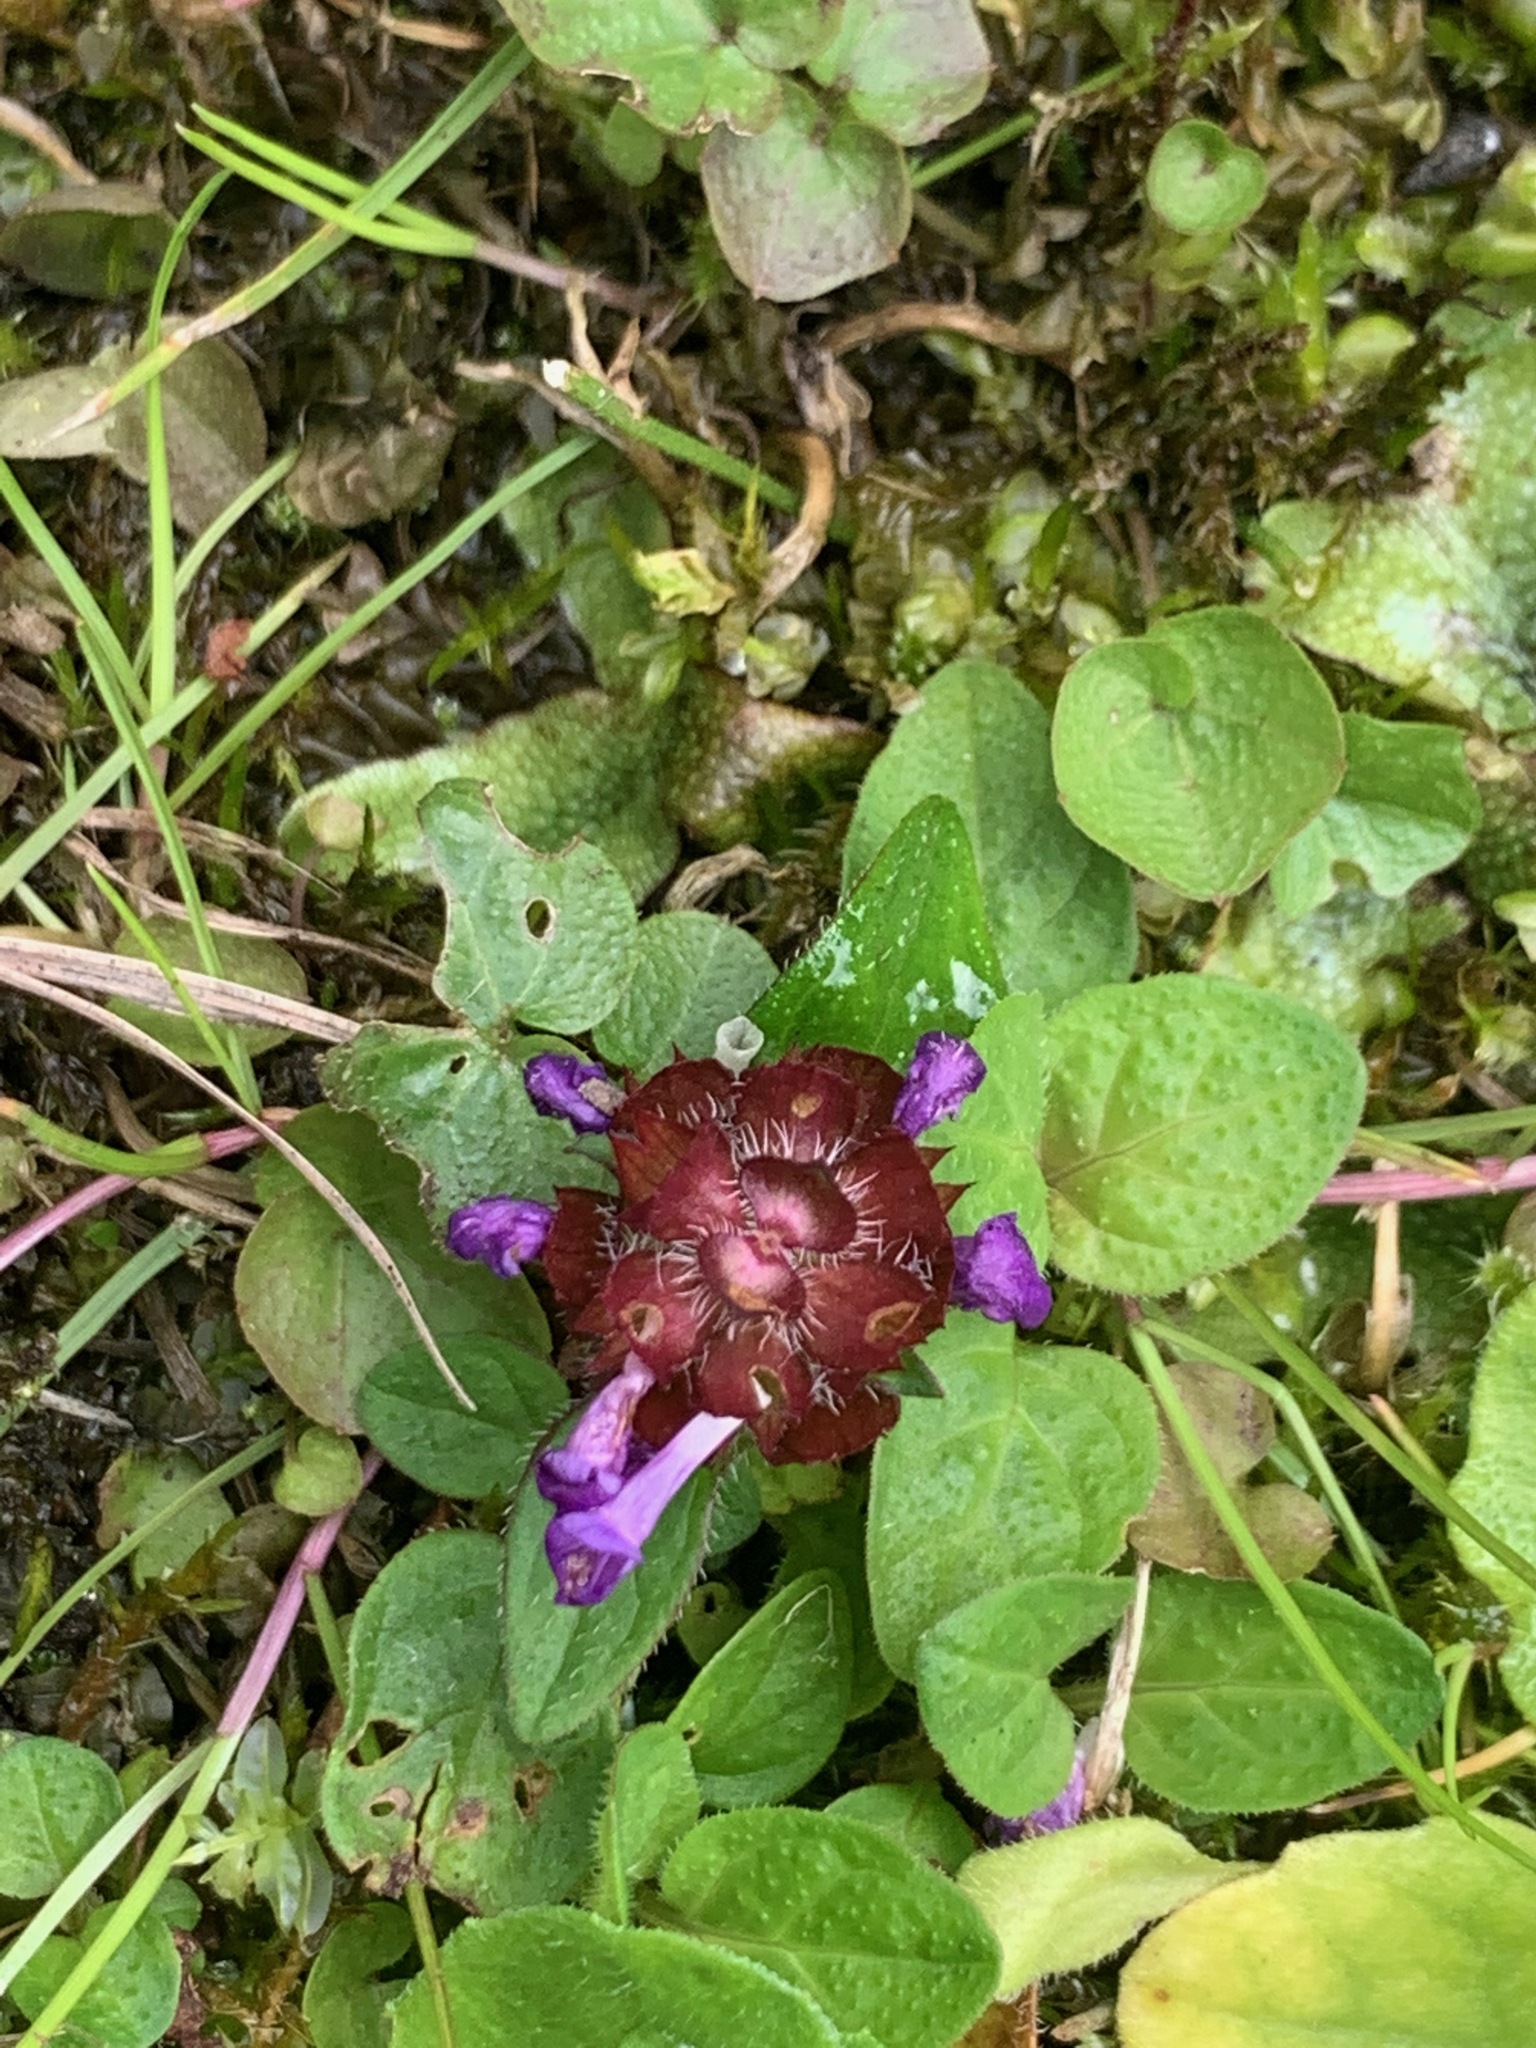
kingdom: Plantae
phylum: Tracheophyta
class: Magnoliopsida
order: Lamiales
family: Lamiaceae
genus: Prunella
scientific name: Prunella vulgaris
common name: Heal-all
